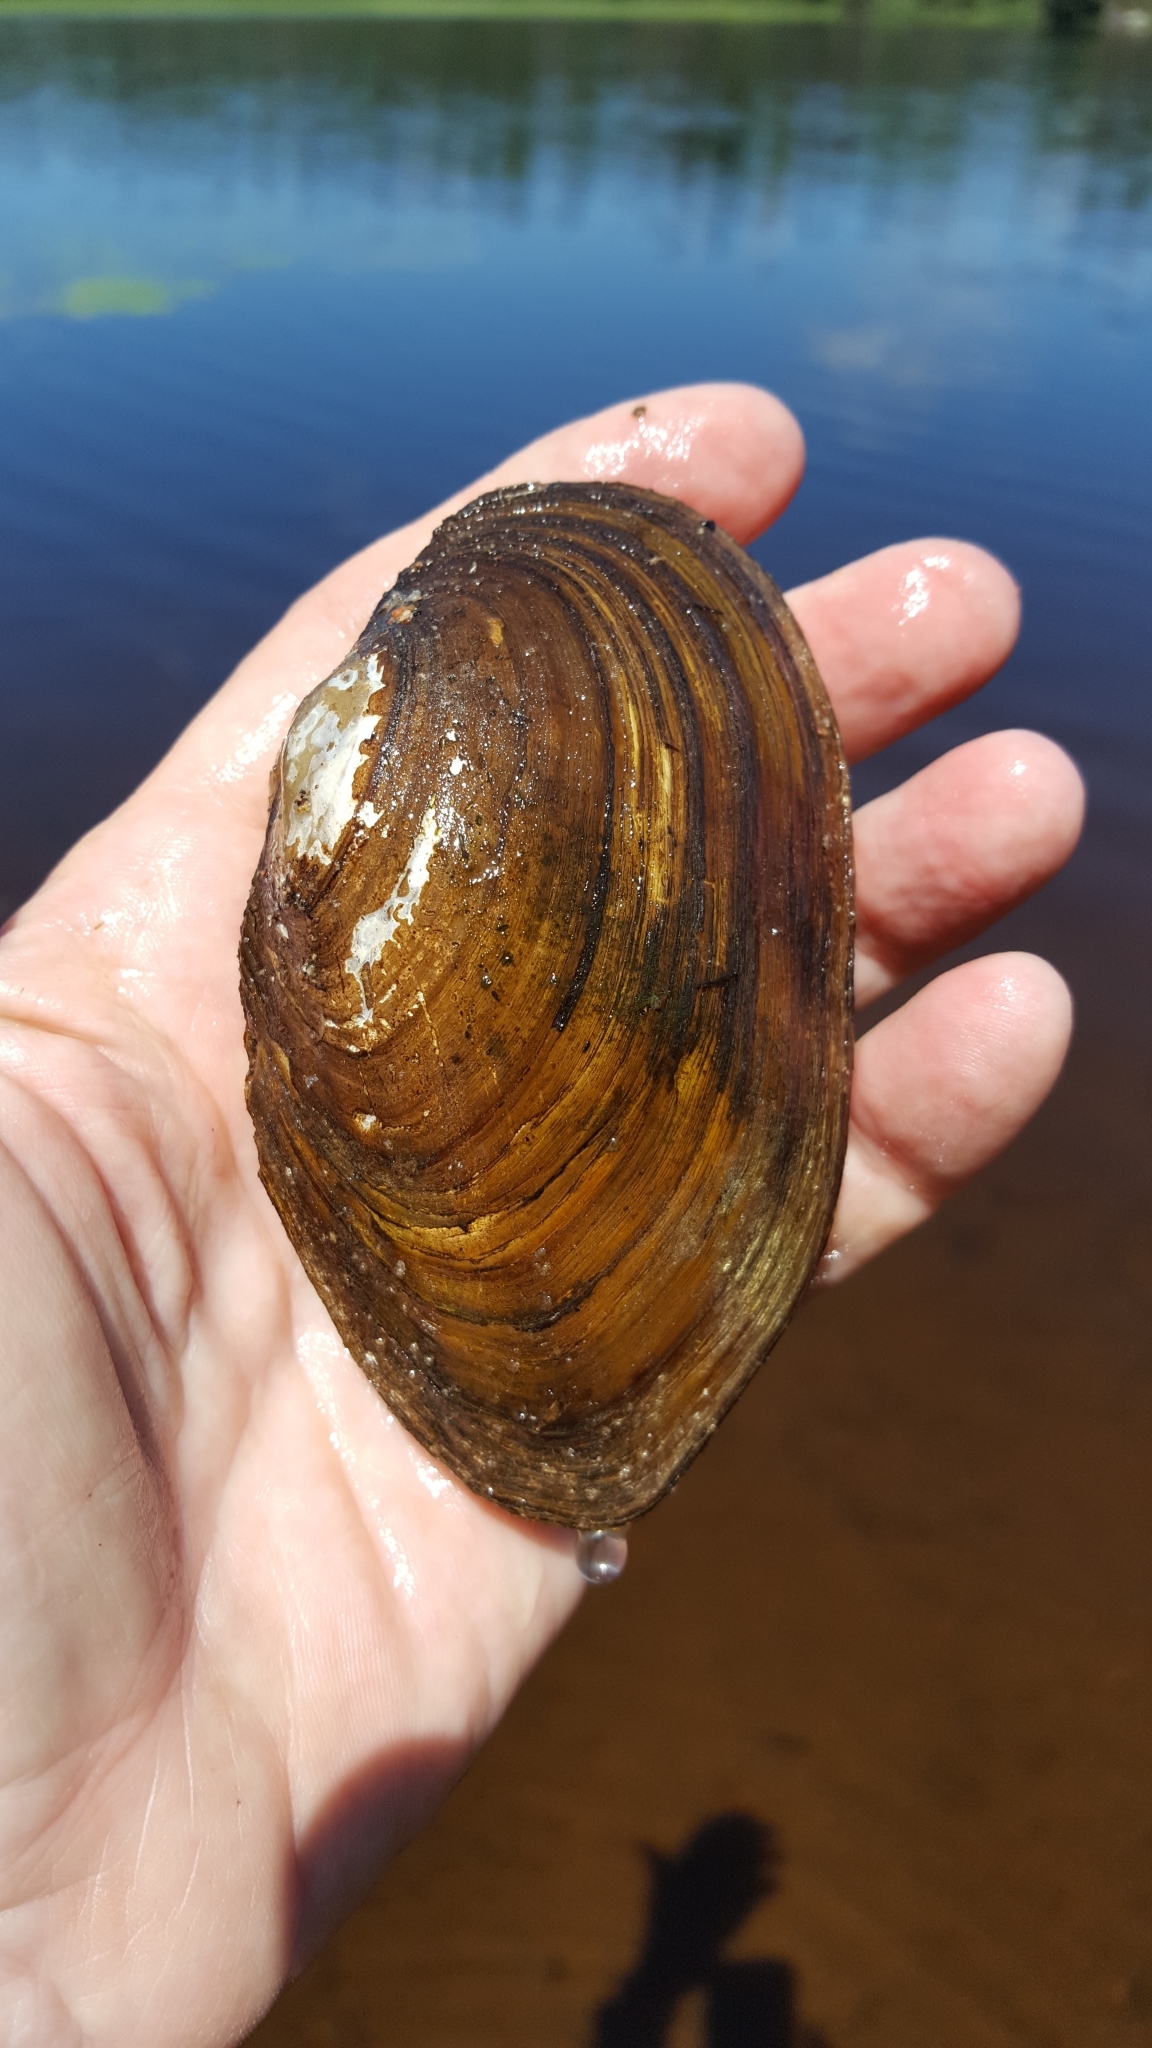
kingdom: Animalia
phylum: Mollusca
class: Bivalvia
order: Unionida
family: Unionidae
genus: Pyganodon
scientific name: Pyganodon grandis
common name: Giant floater
